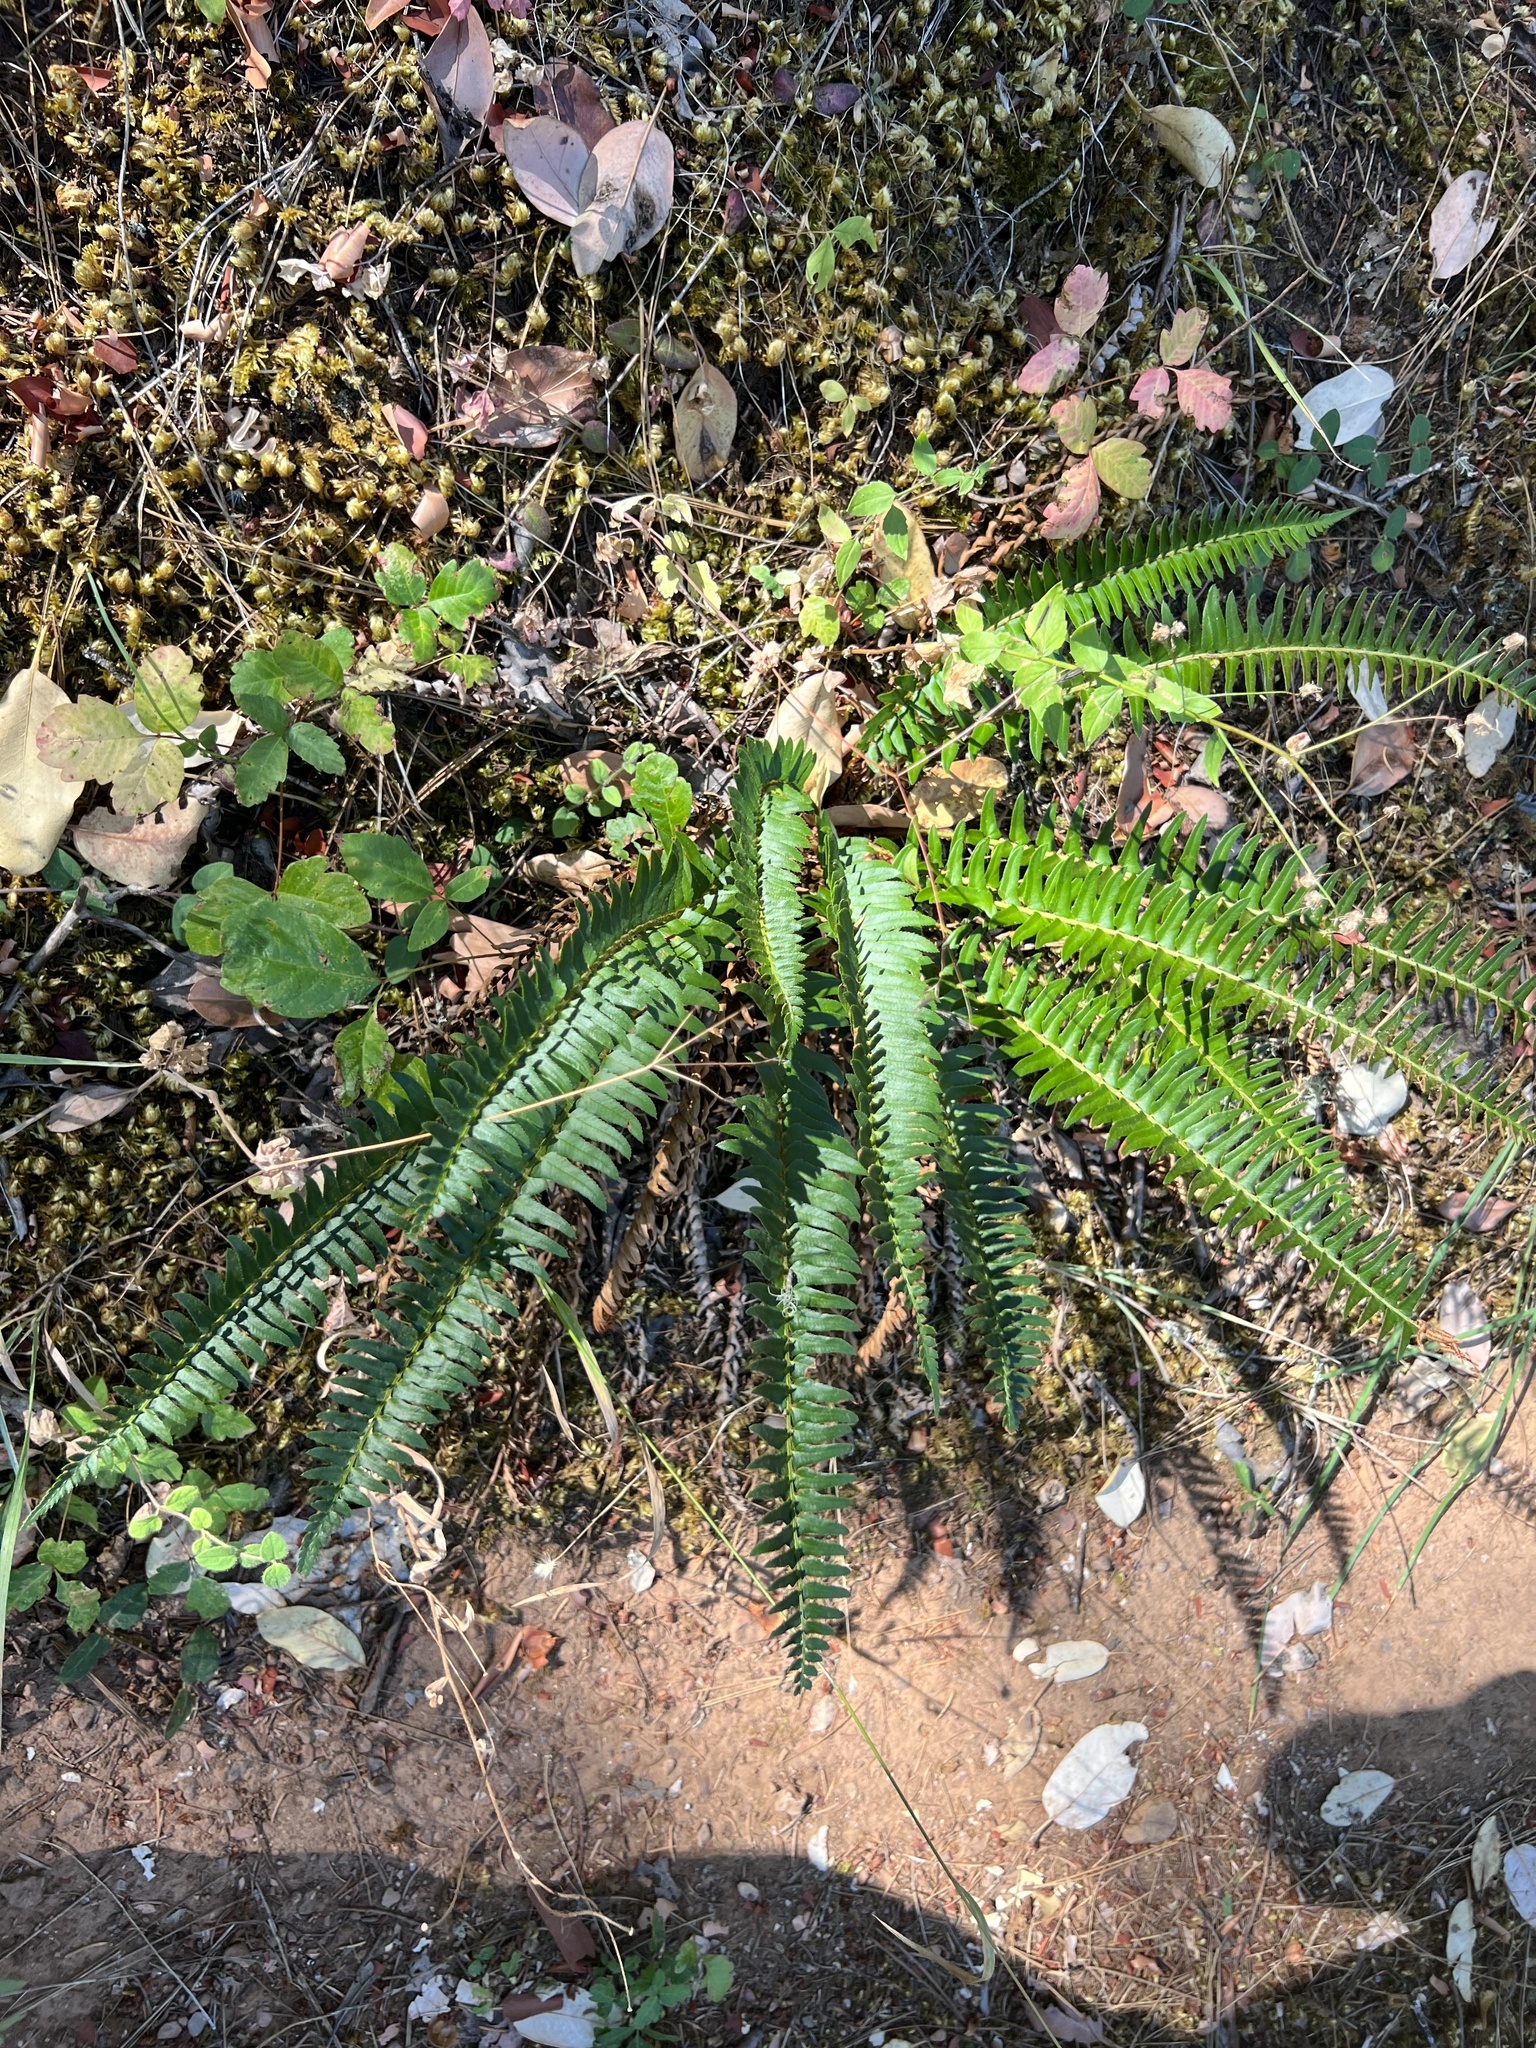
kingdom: Plantae
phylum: Tracheophyta
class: Polypodiopsida
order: Polypodiales
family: Dryopteridaceae
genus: Polystichum
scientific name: Polystichum munitum
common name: Western sword-fern
